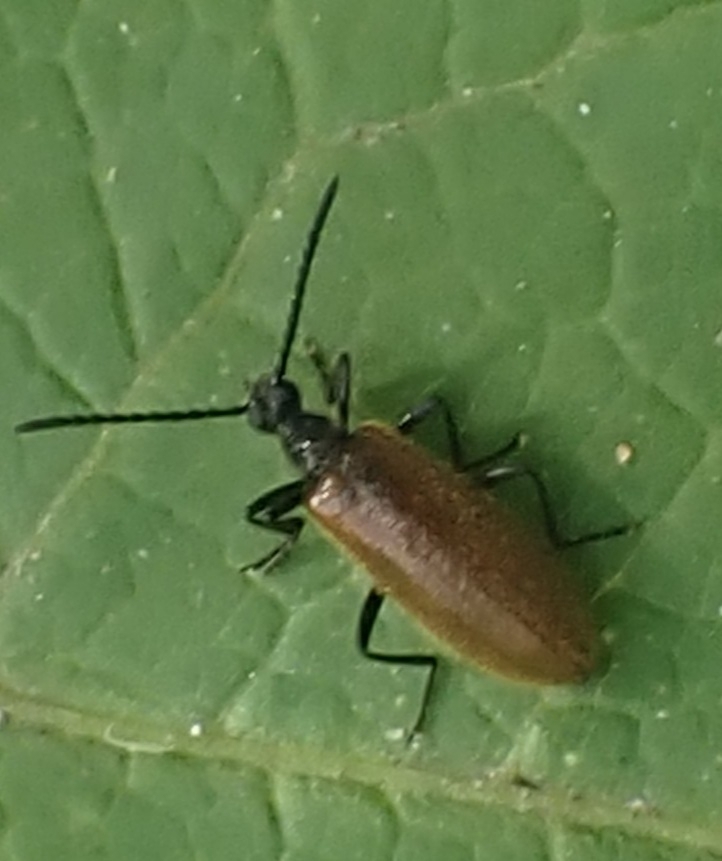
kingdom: Animalia
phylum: Arthropoda
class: Insecta
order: Coleoptera
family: Tenebrionidae
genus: Lagria
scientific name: Lagria hirta
